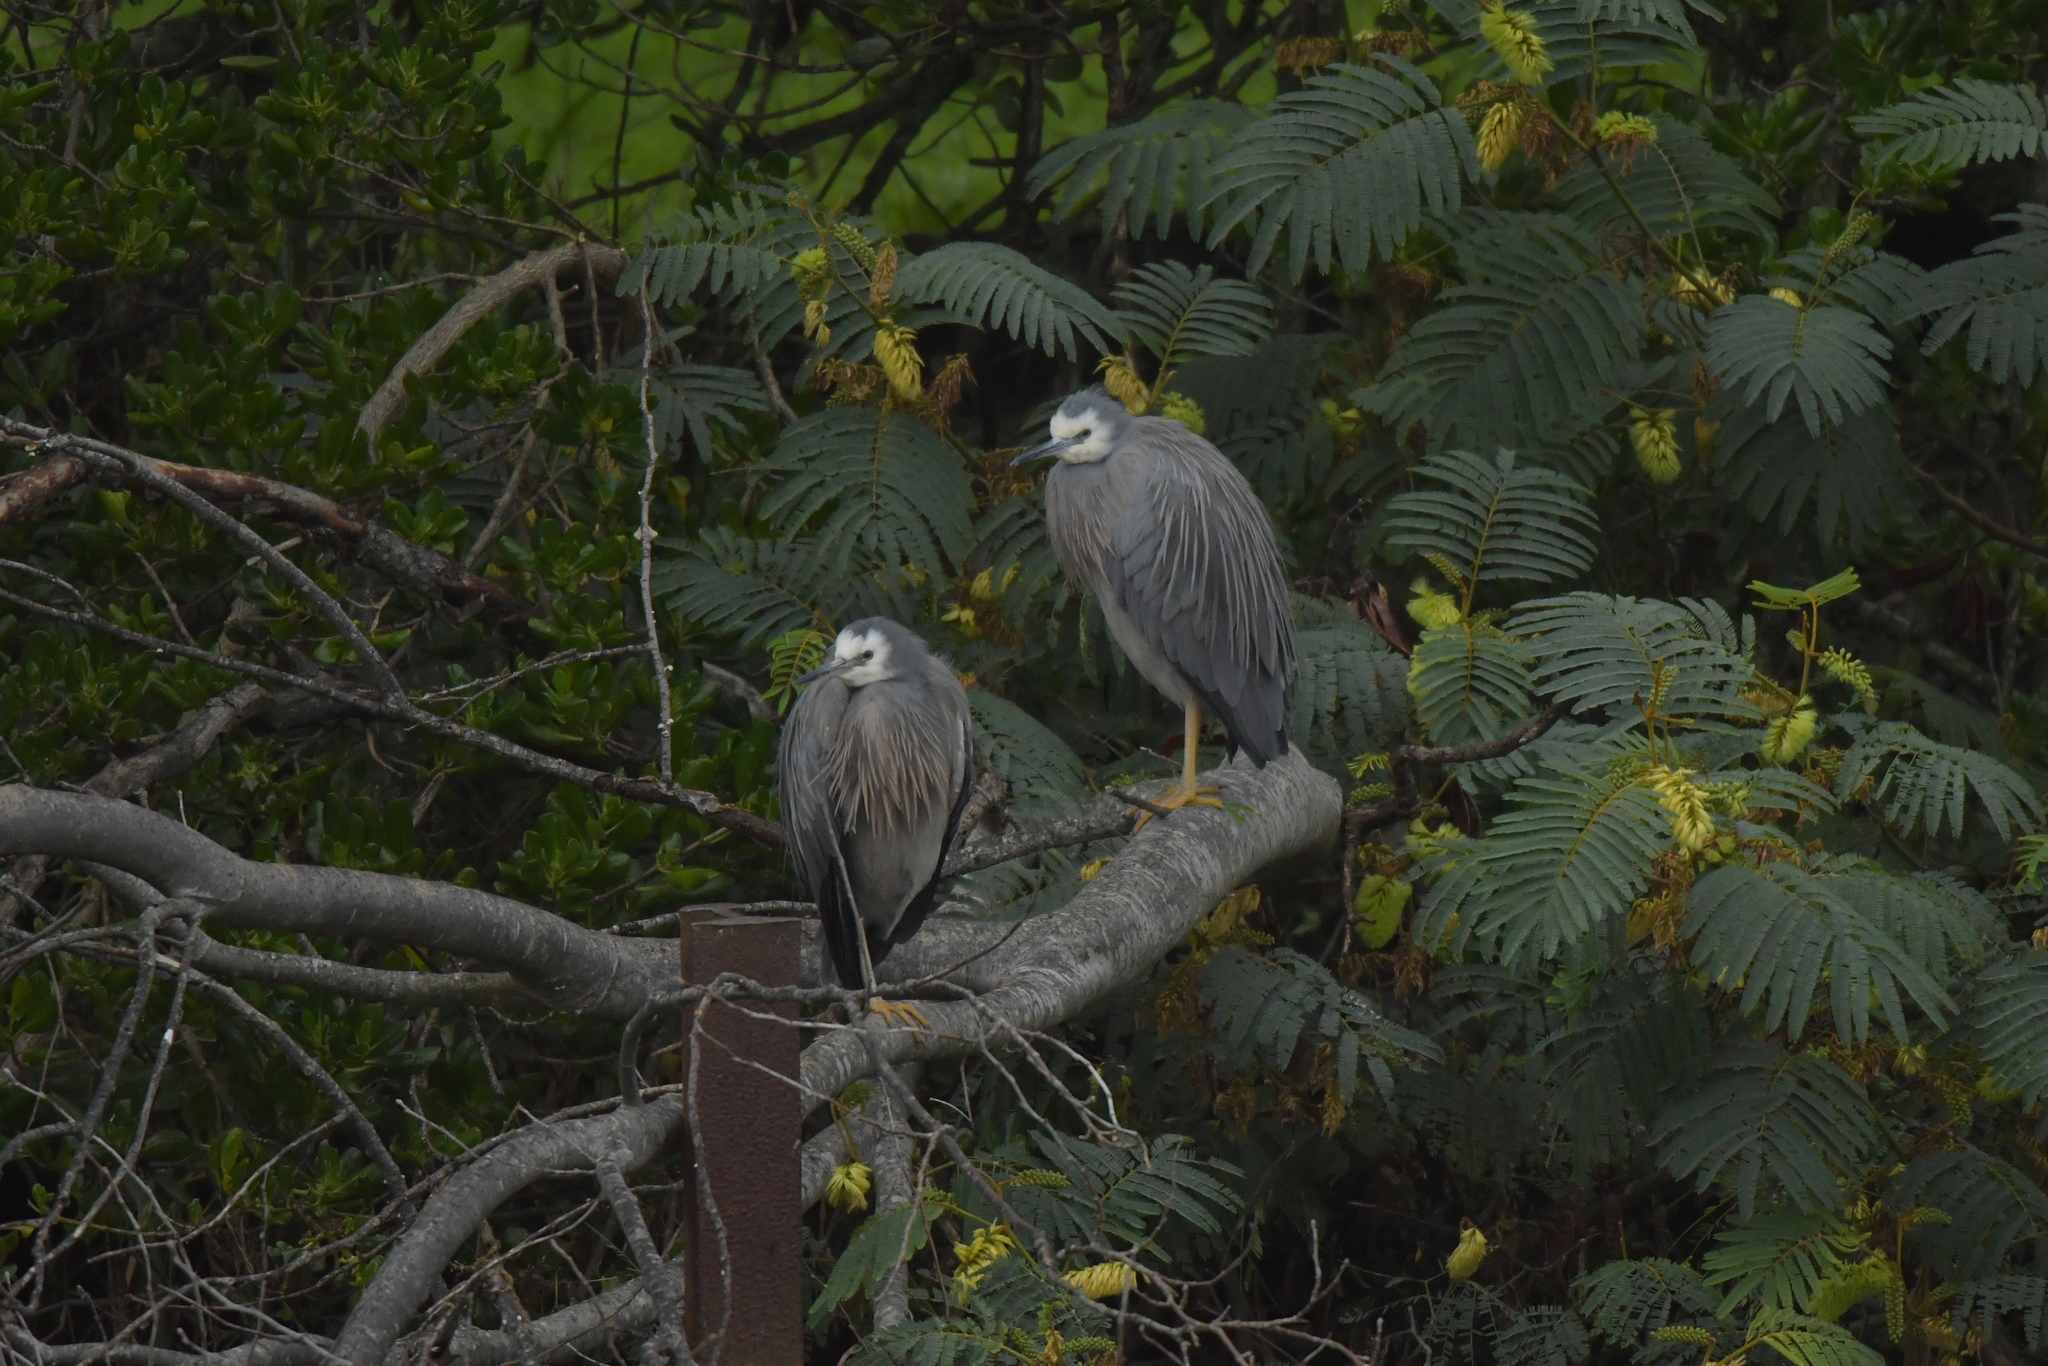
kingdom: Animalia
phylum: Chordata
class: Aves
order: Pelecaniformes
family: Ardeidae
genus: Egretta
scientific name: Egretta novaehollandiae
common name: White-faced heron
